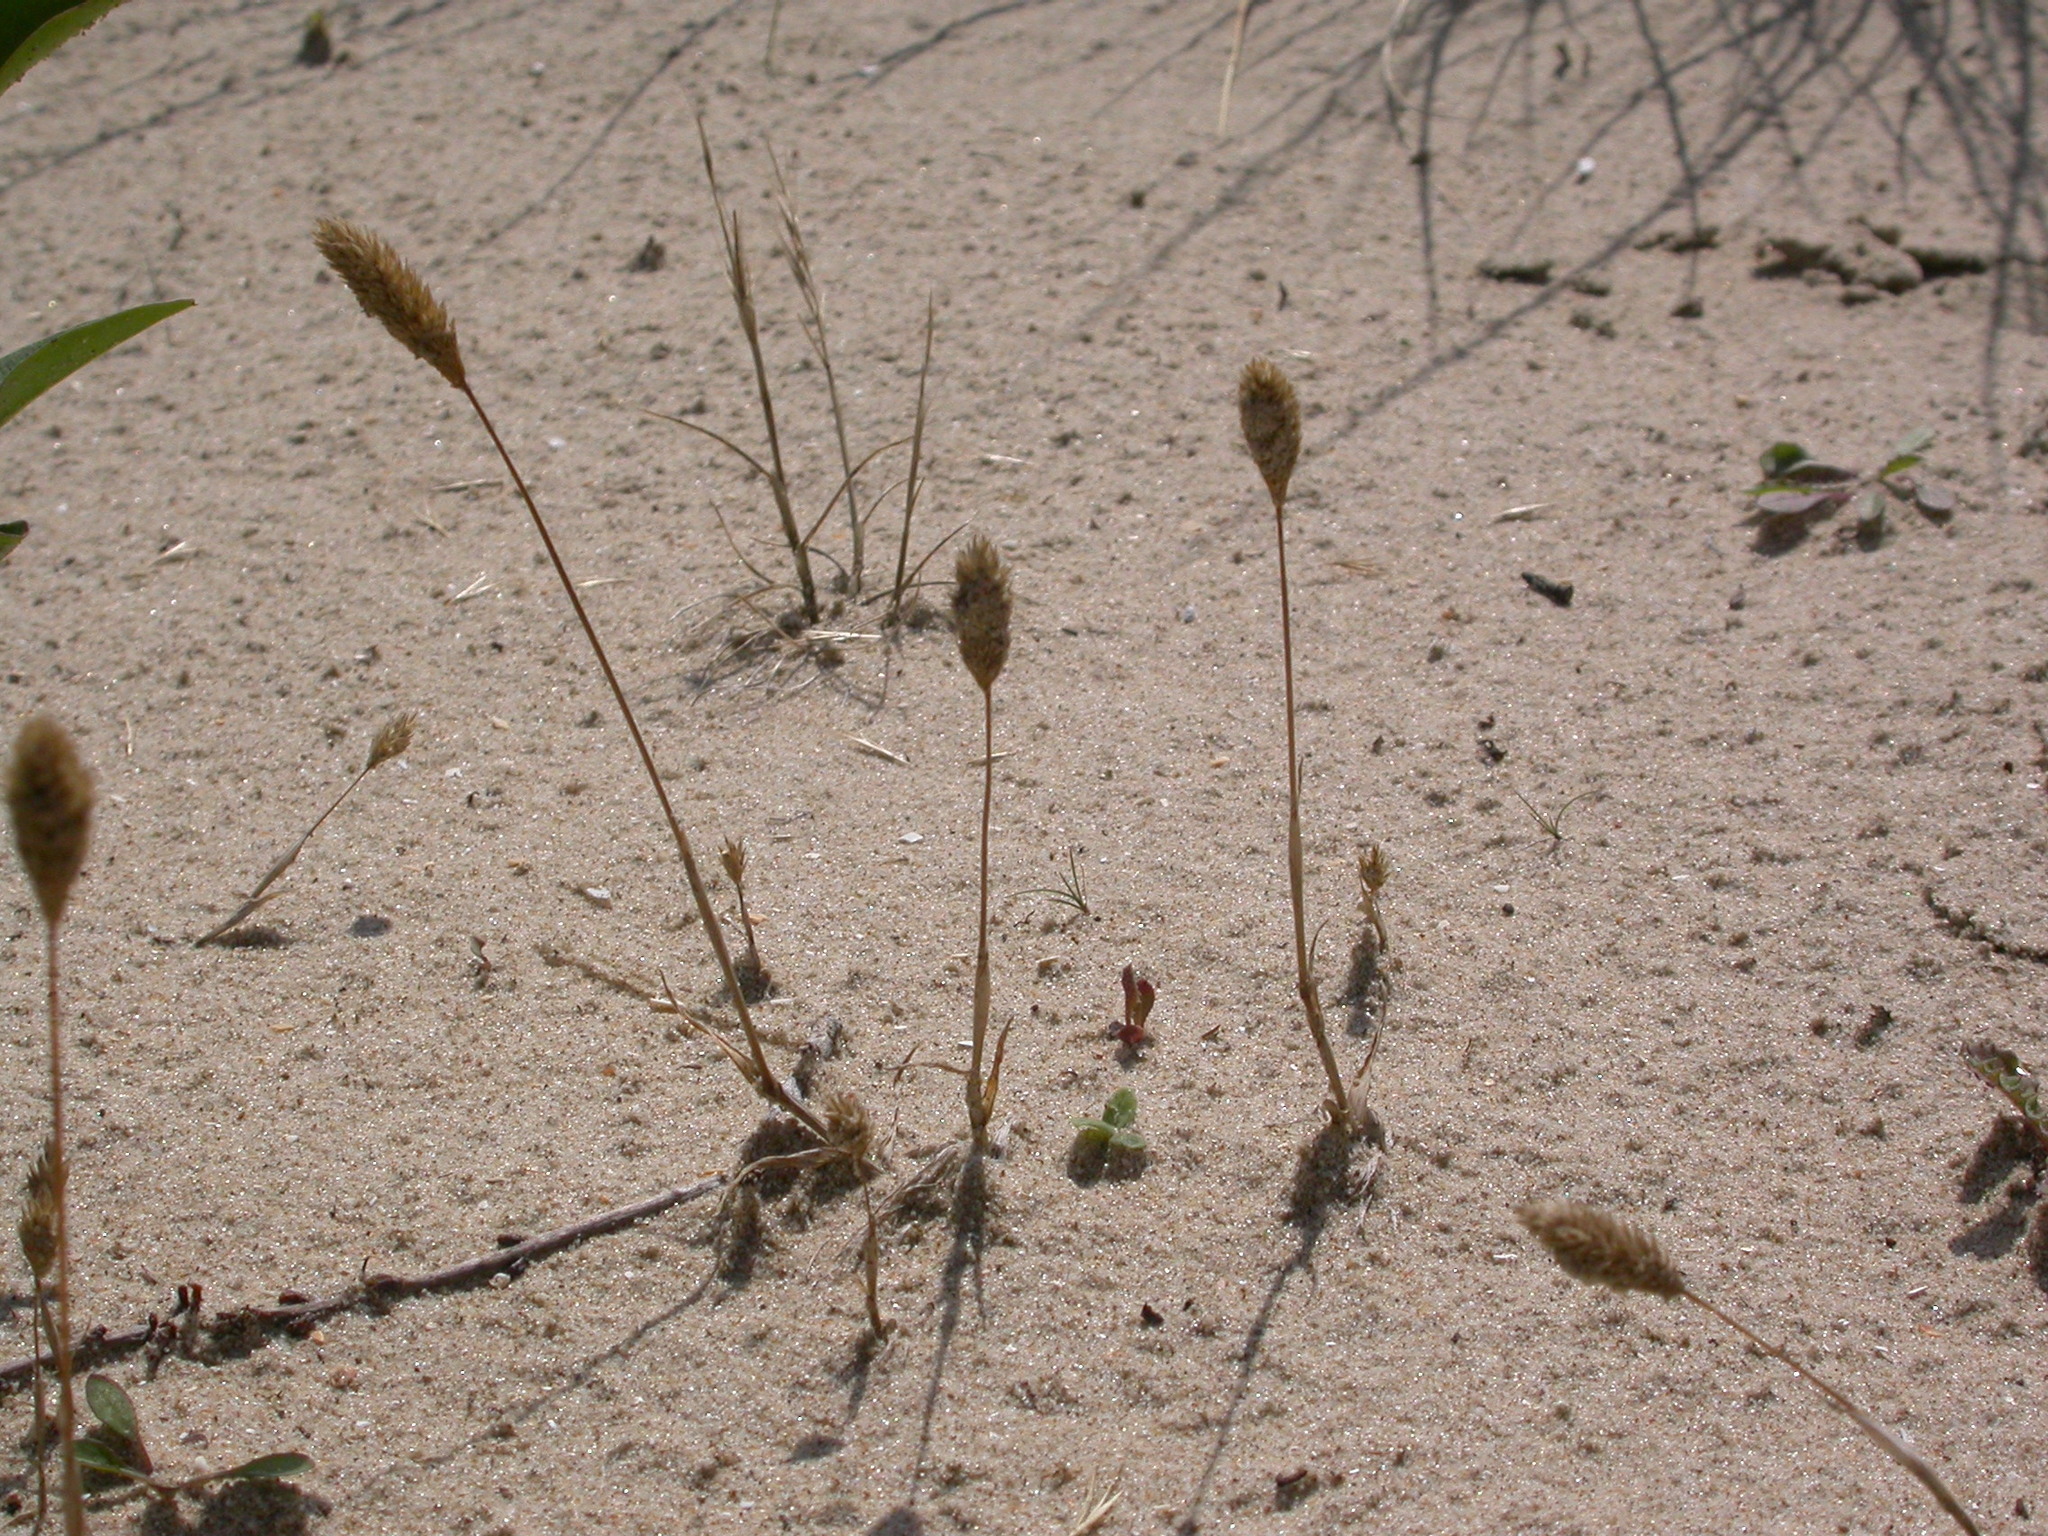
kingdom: Plantae
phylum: Tracheophyta
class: Liliopsida
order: Poales
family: Poaceae
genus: Phleum
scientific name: Phleum arenarium
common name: Sand cat's-tail
